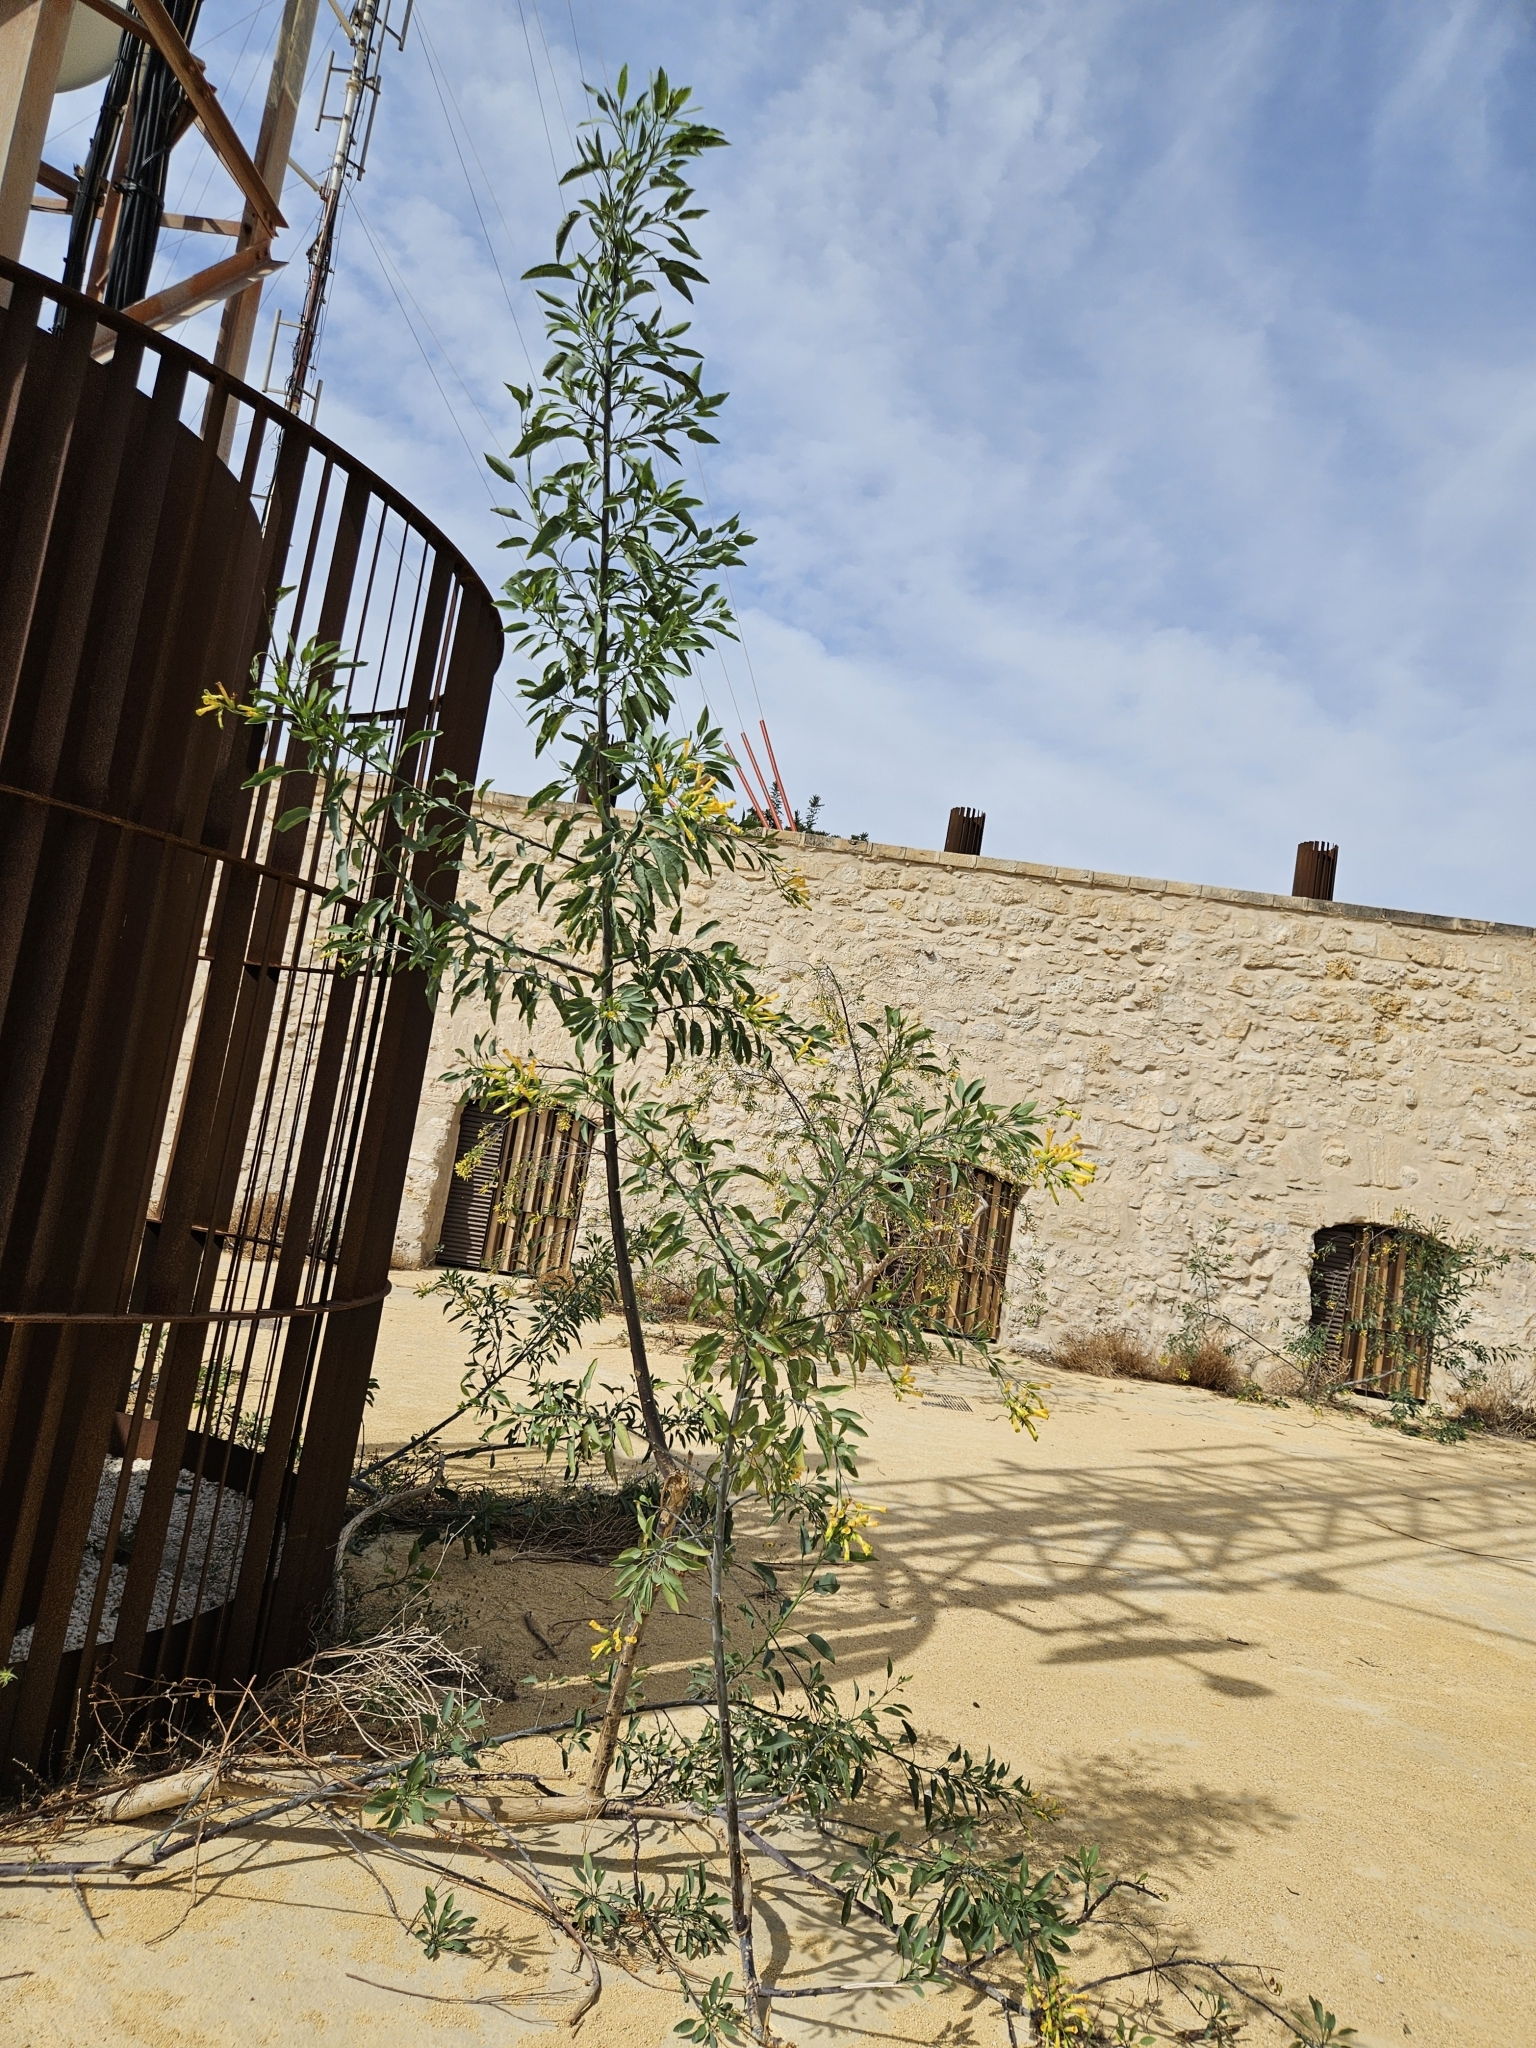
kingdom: Plantae
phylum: Tracheophyta
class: Magnoliopsida
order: Solanales
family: Solanaceae
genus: Nicotiana
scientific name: Nicotiana glauca
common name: Tree tobacco
